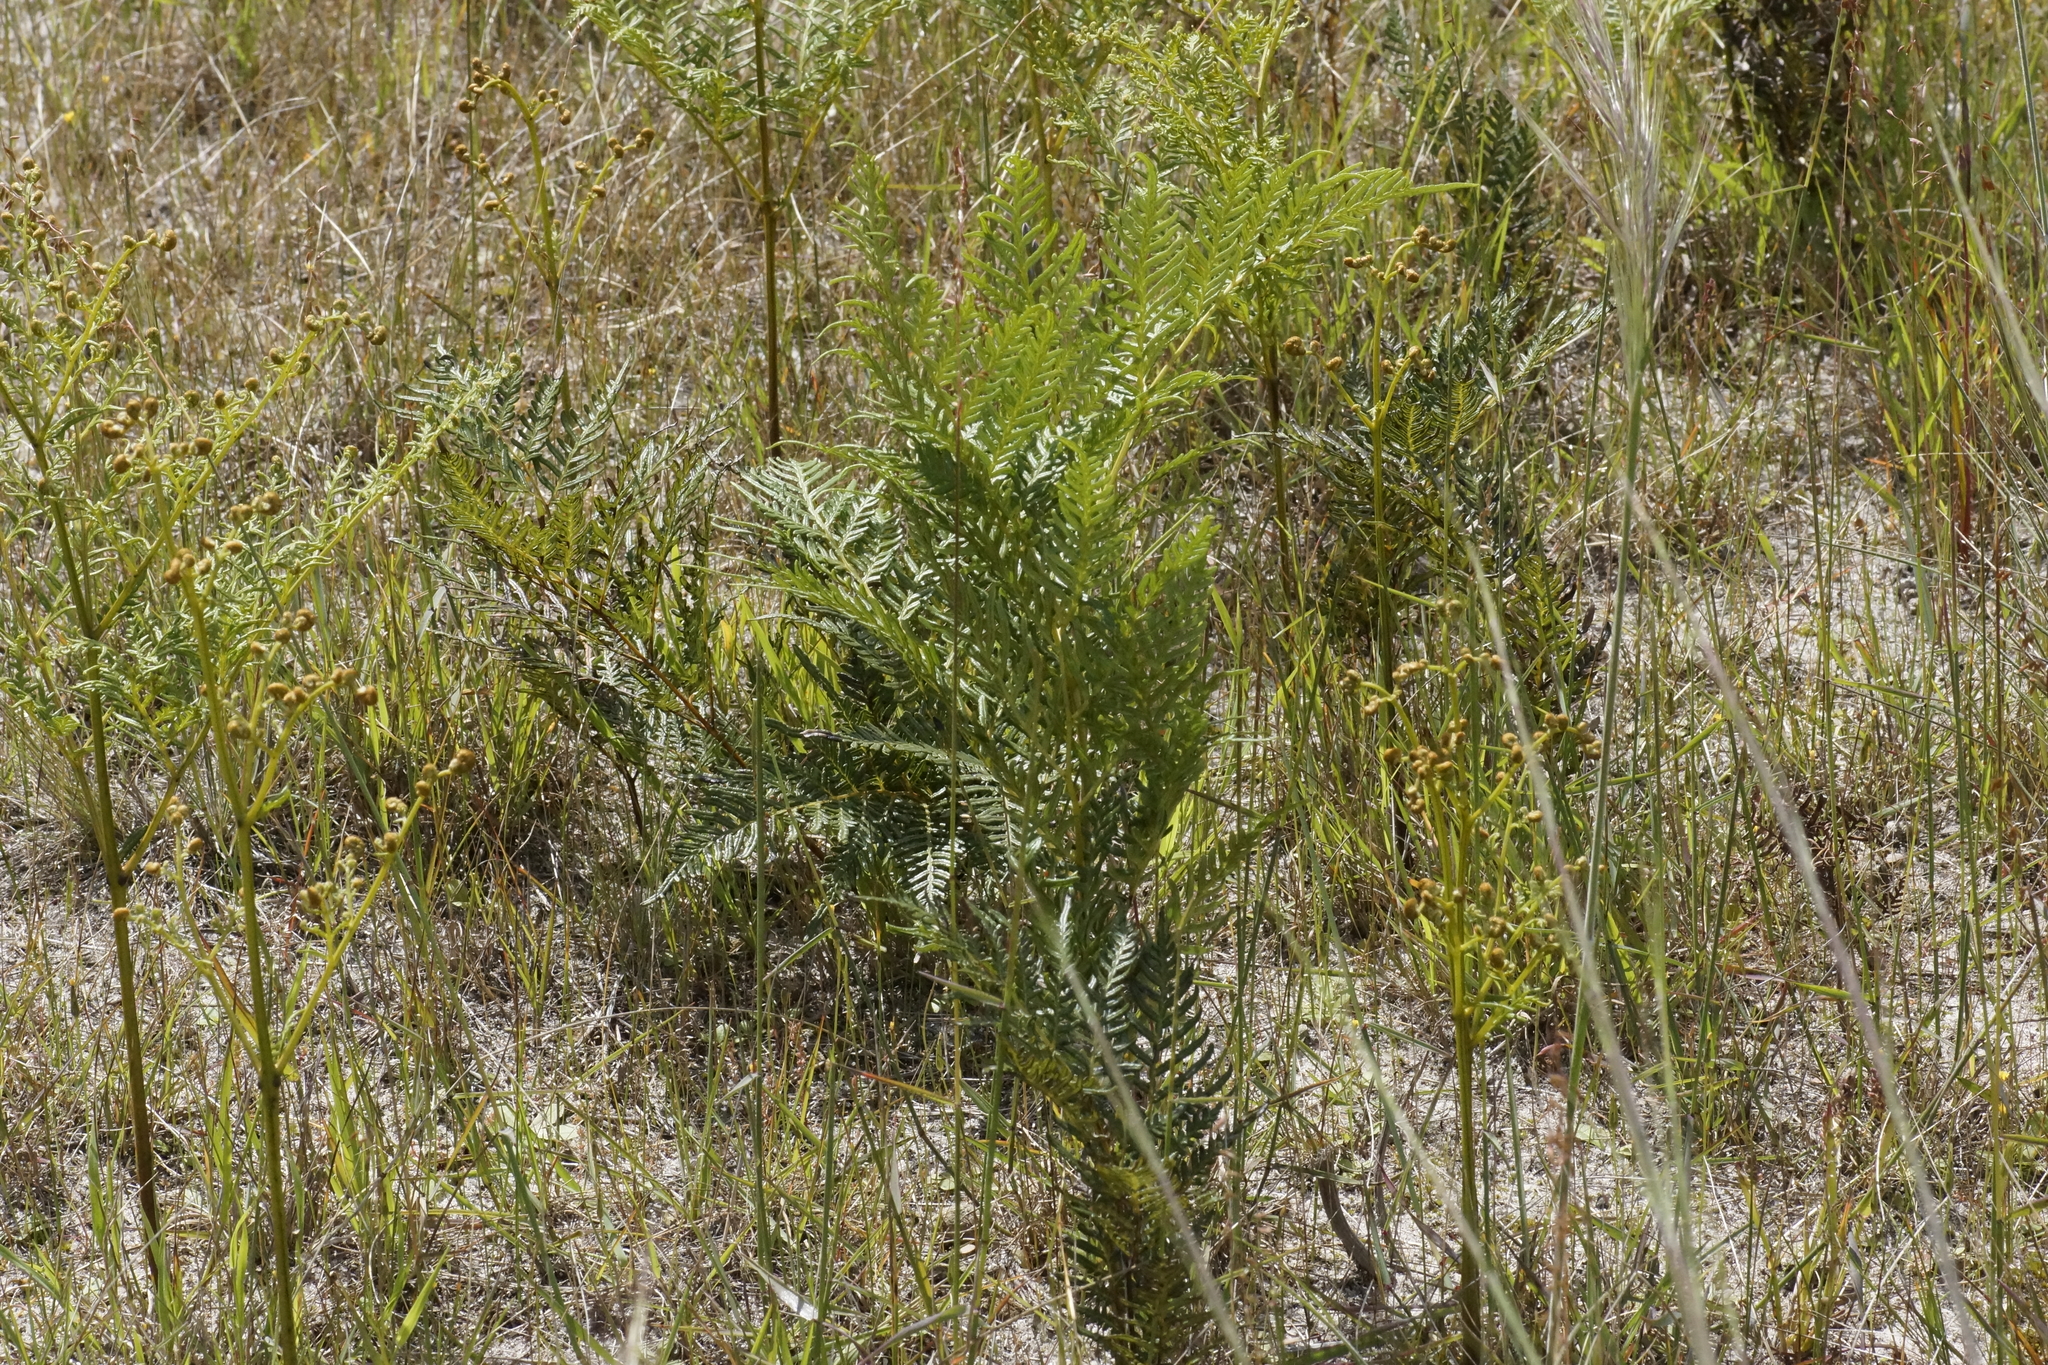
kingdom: Plantae
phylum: Tracheophyta
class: Polypodiopsida
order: Polypodiales
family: Dennstaedtiaceae
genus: Pteridium
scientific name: Pteridium esculentum
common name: Bracken fern
